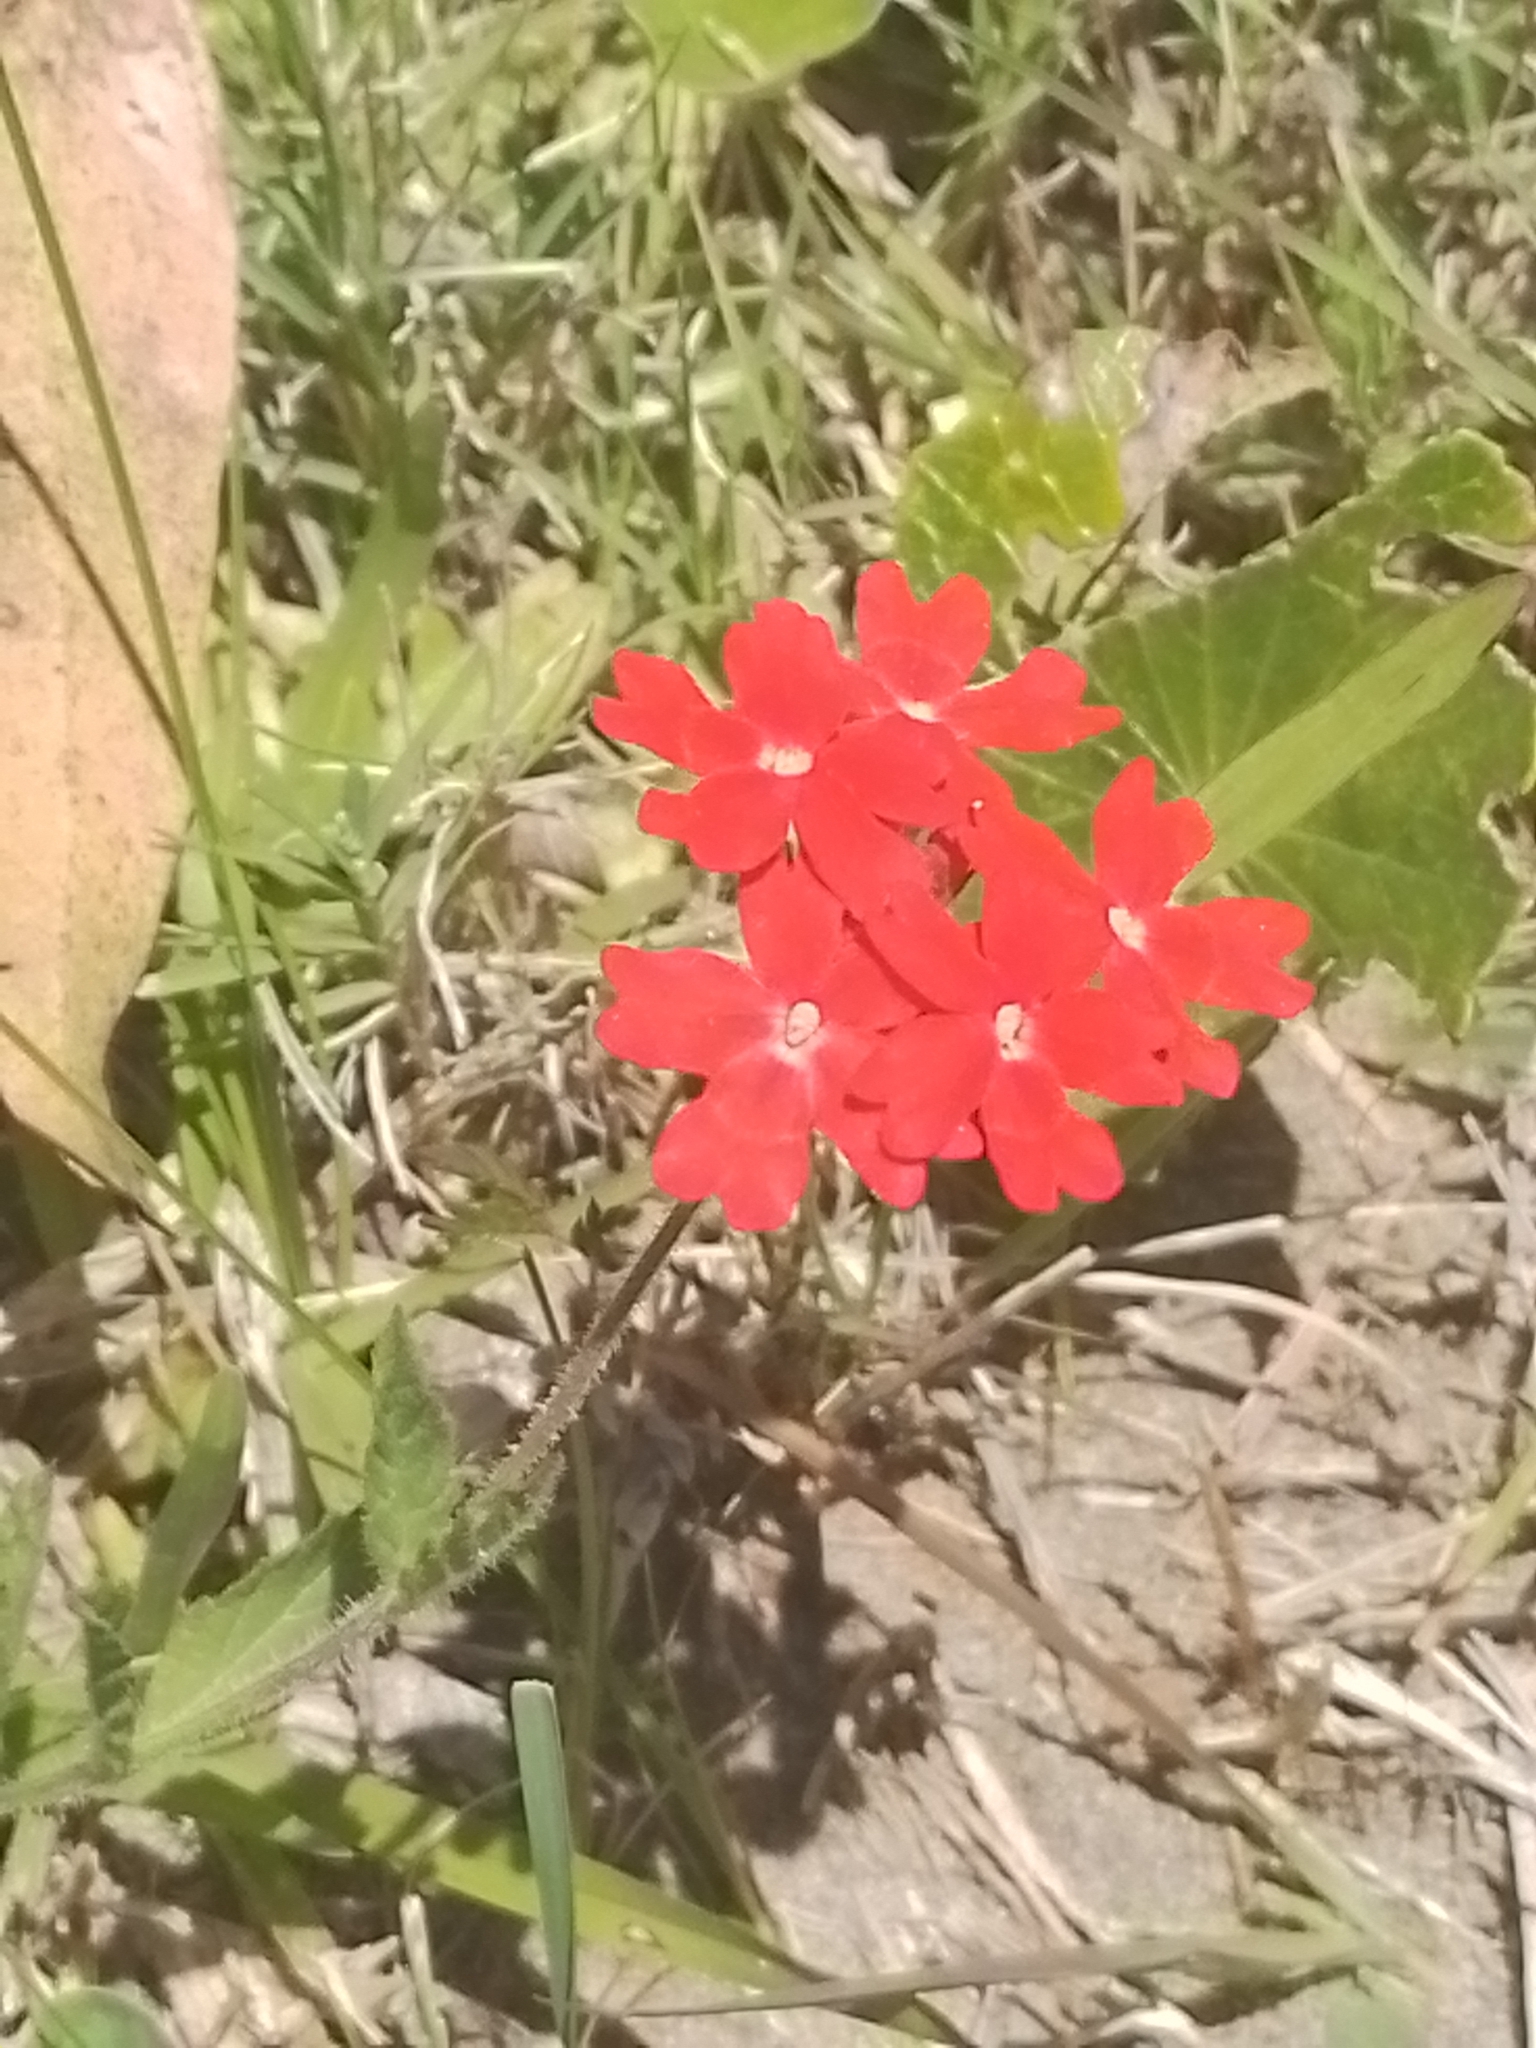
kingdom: Plantae
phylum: Tracheophyta
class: Magnoliopsida
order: Lamiales
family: Verbenaceae
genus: Verbena
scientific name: Verbena peruviana
